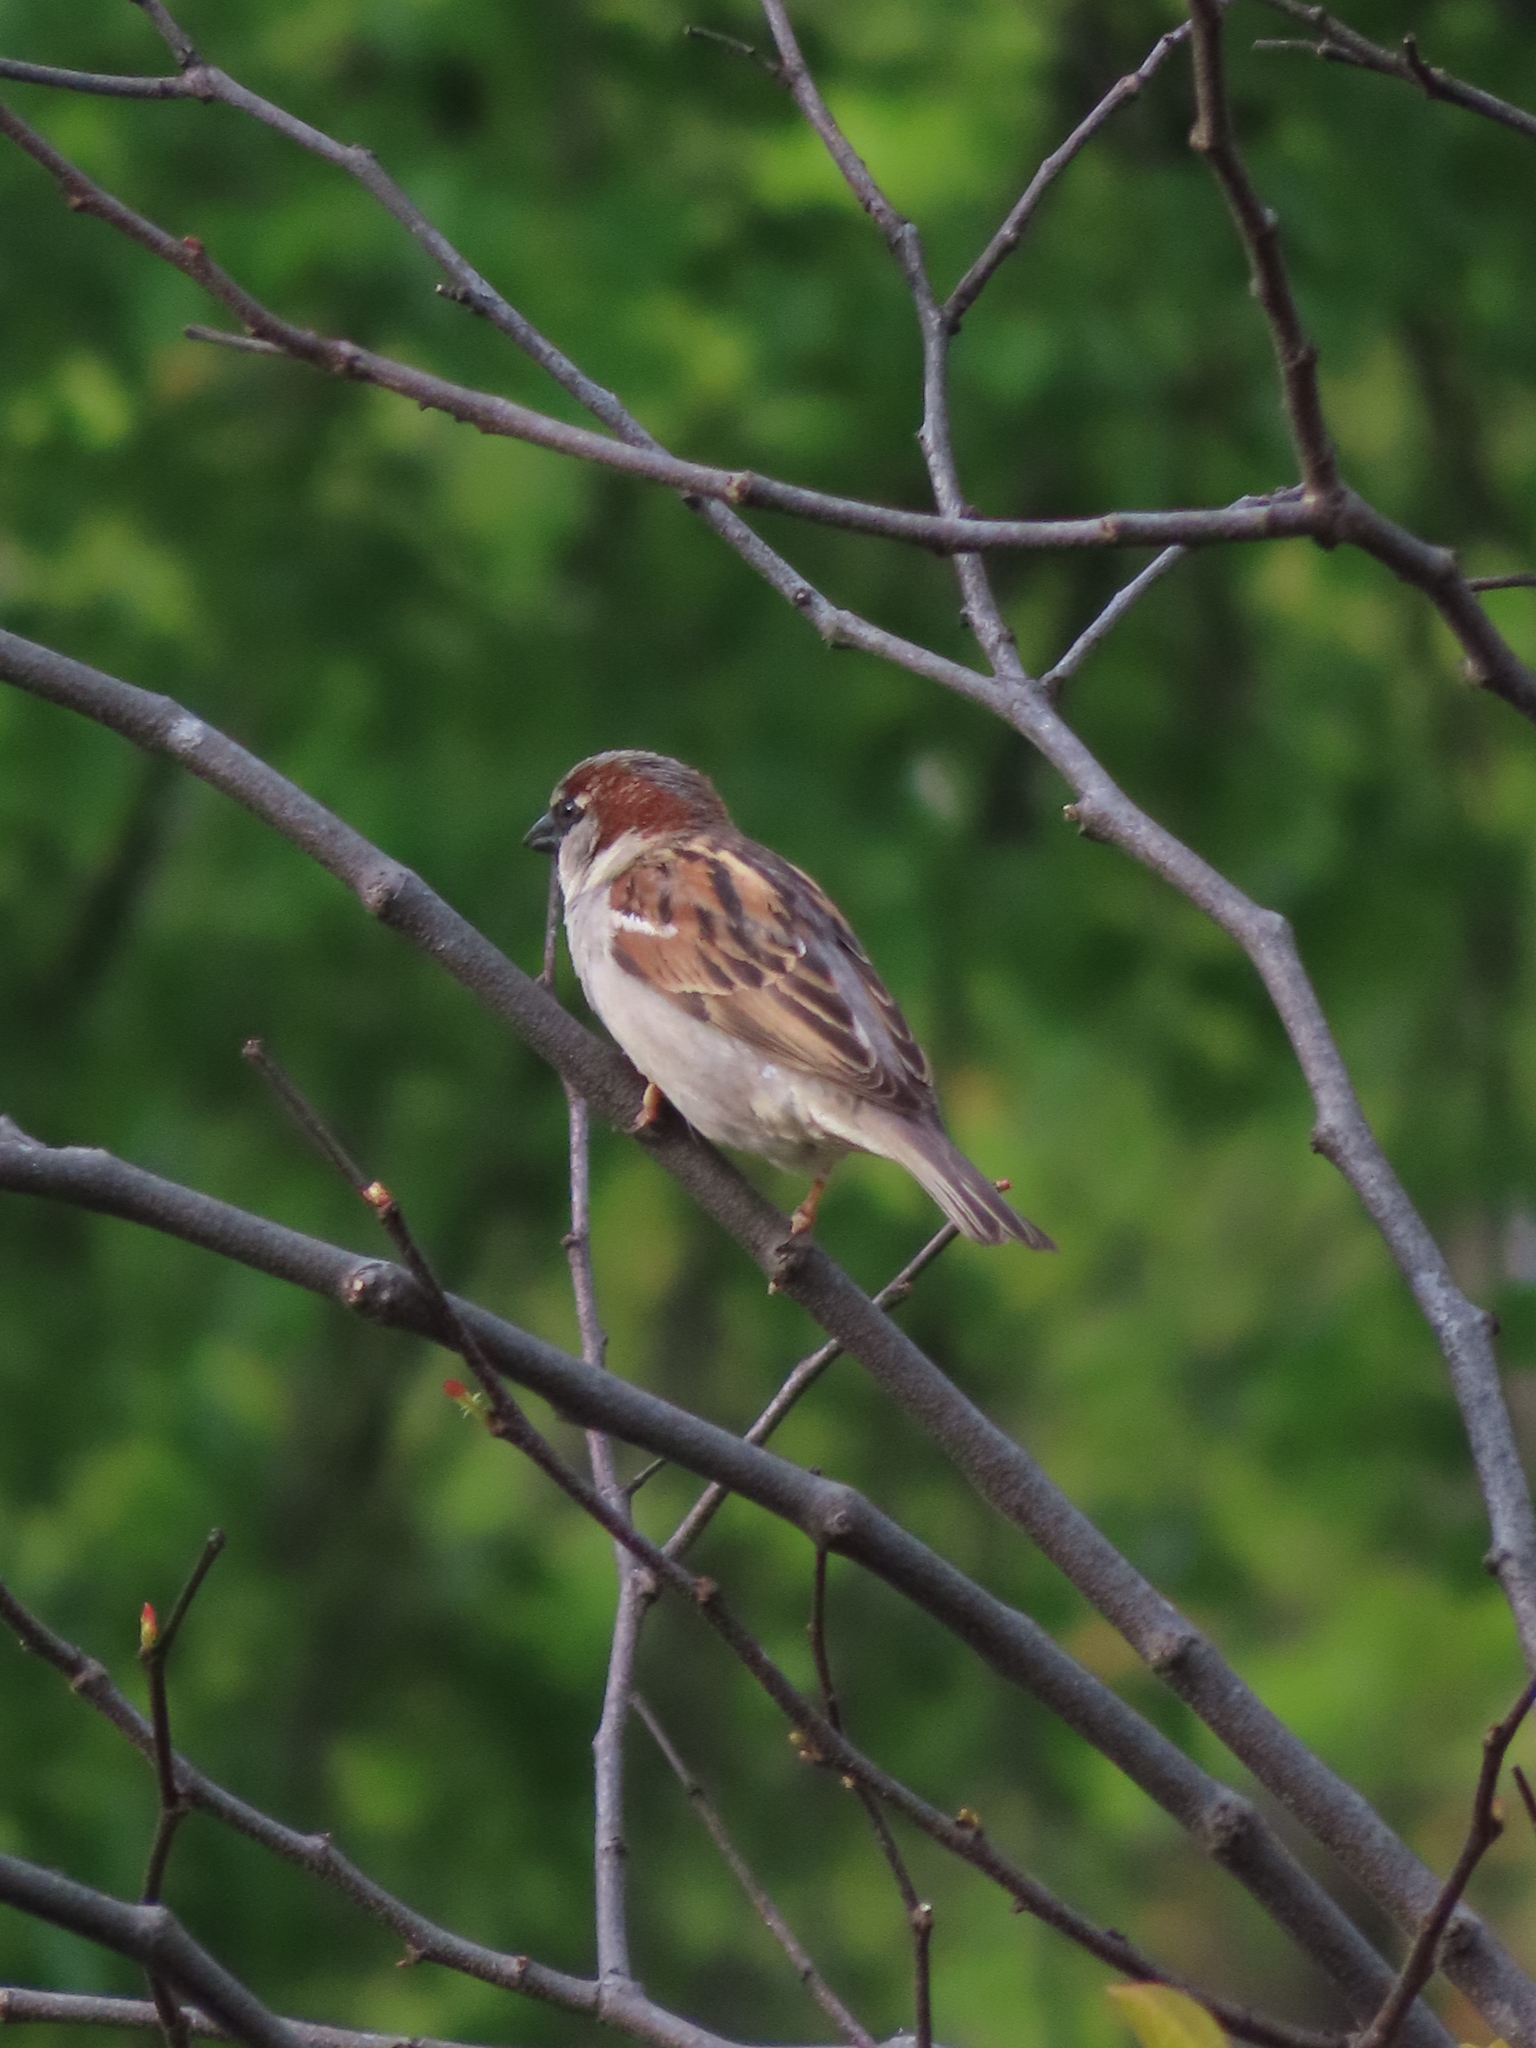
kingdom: Animalia
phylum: Chordata
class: Aves
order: Passeriformes
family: Passeridae
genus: Passer
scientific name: Passer domesticus
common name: House sparrow
